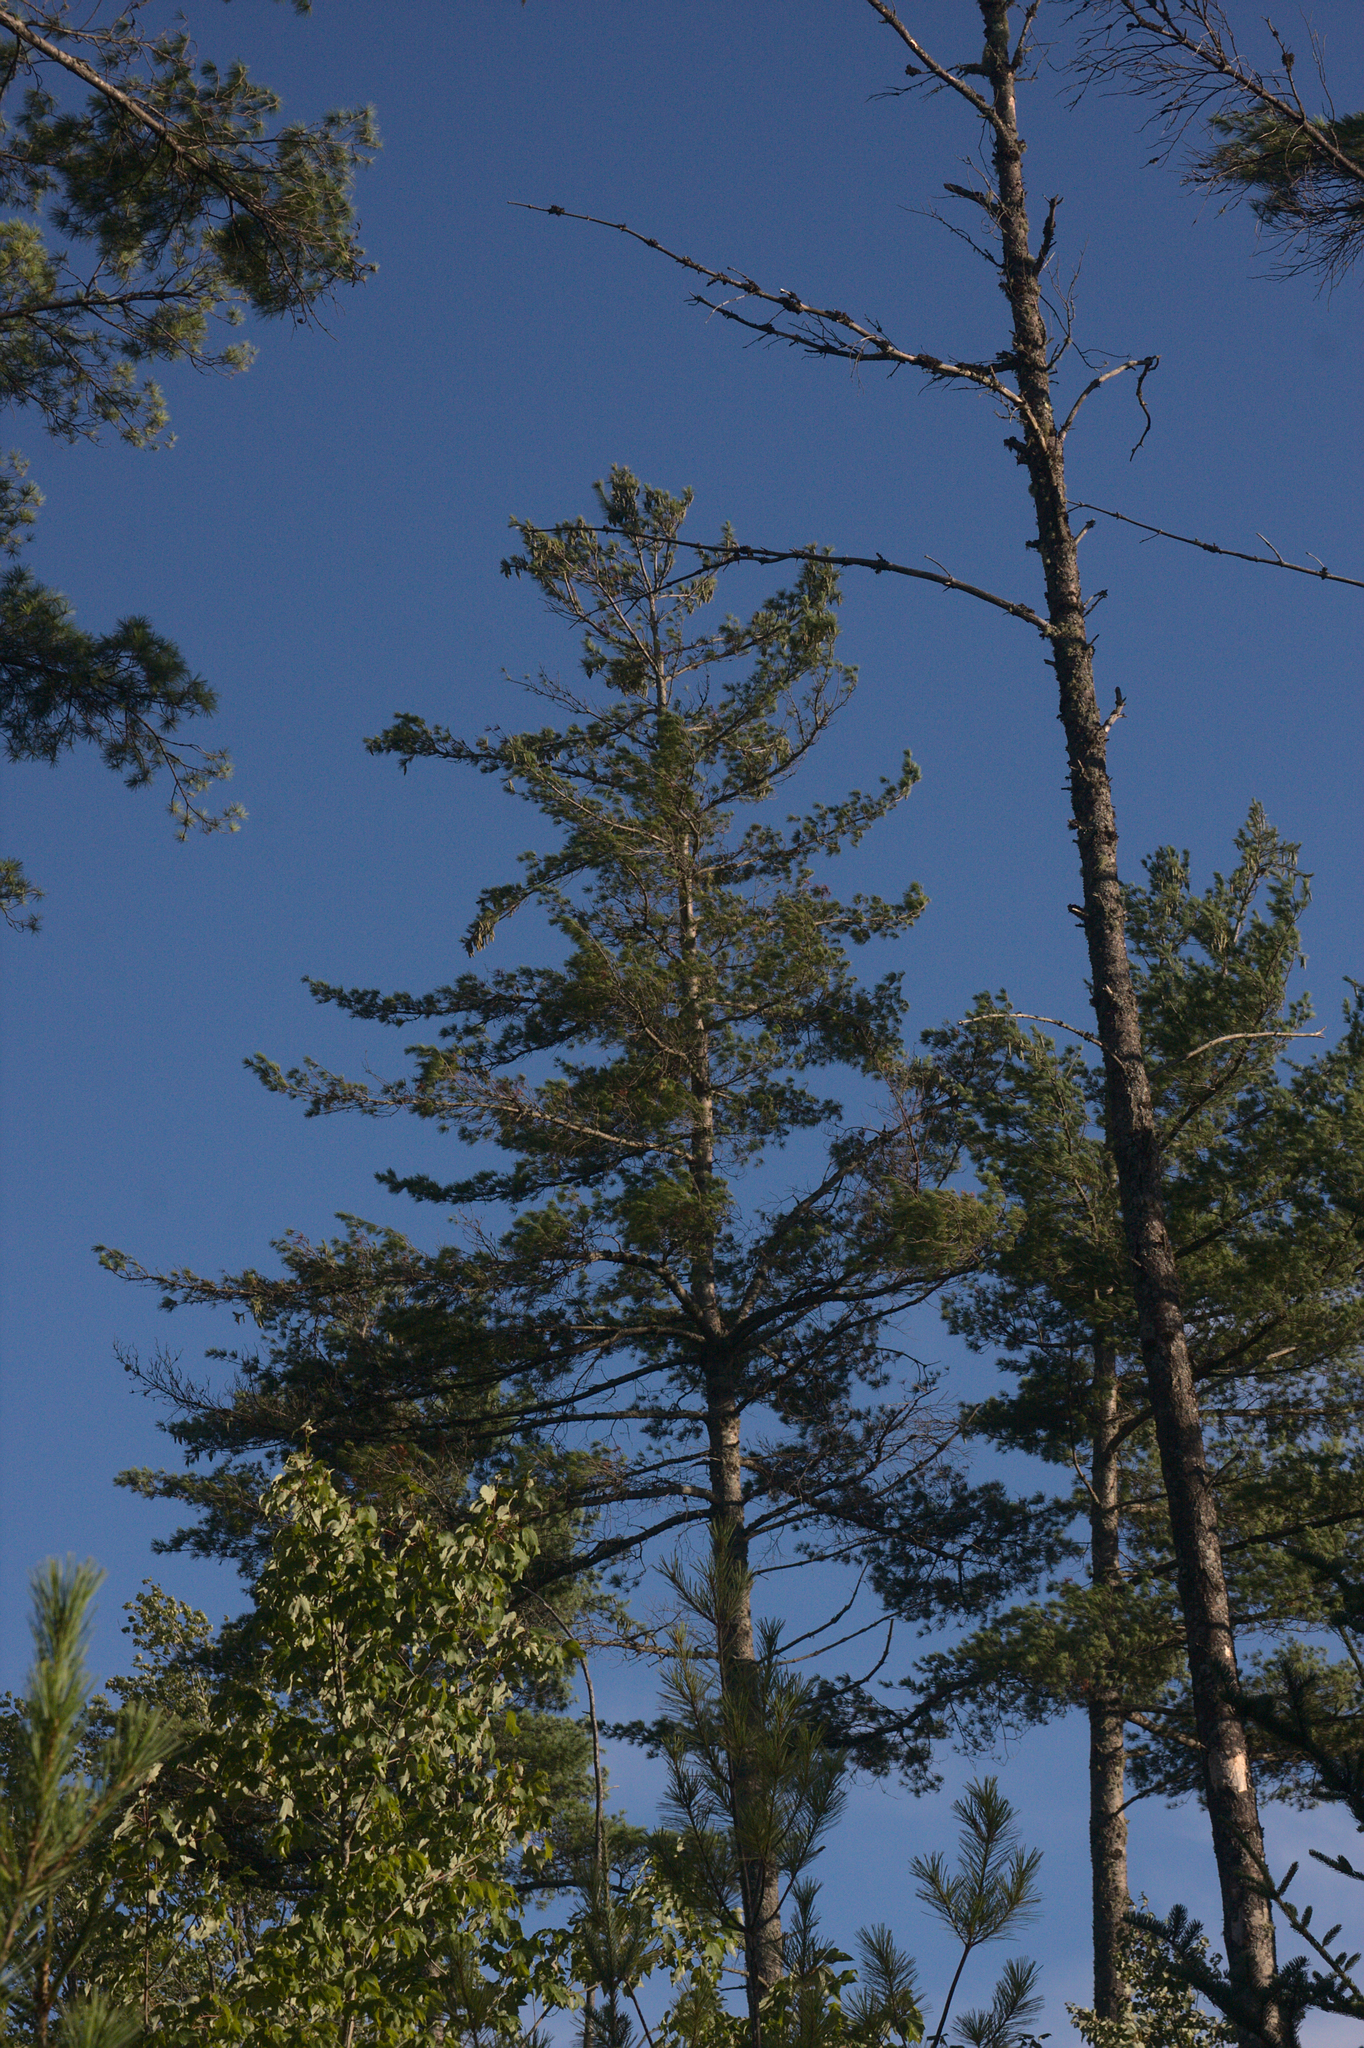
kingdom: Plantae
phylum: Tracheophyta
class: Pinopsida
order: Pinales
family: Pinaceae
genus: Pinus
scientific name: Pinus strobus
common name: Weymouth pine
